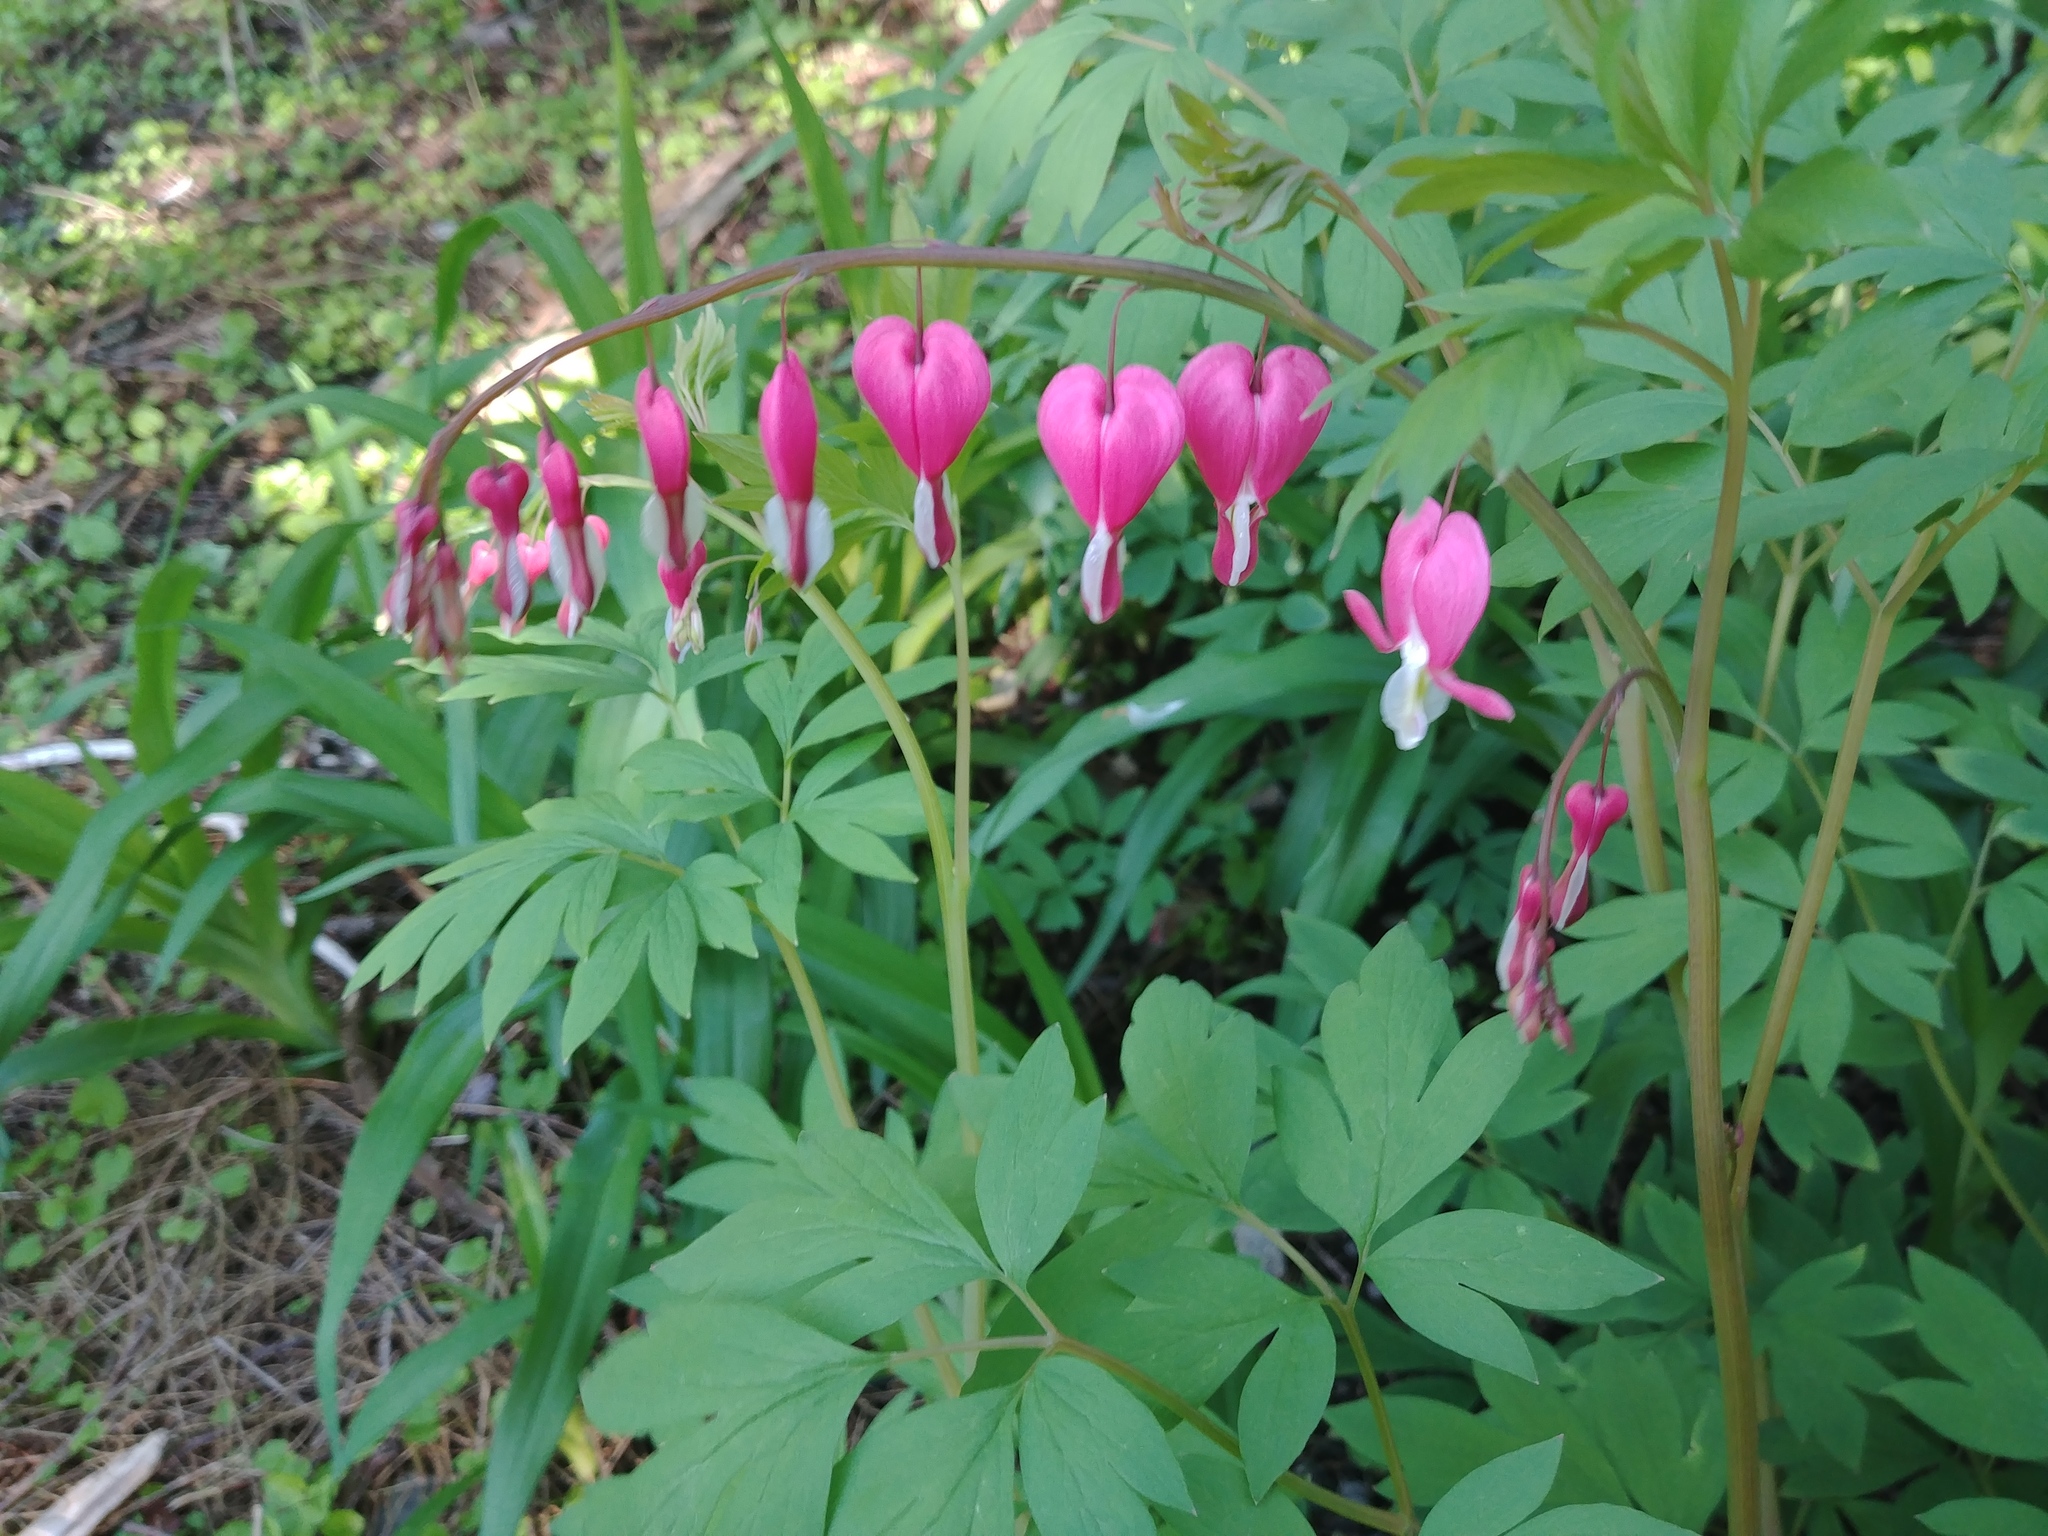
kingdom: Plantae
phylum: Tracheophyta
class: Magnoliopsida
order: Ranunculales
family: Papaveraceae
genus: Lamprocapnos
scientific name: Lamprocapnos spectabilis
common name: Asian bleeding-heart
